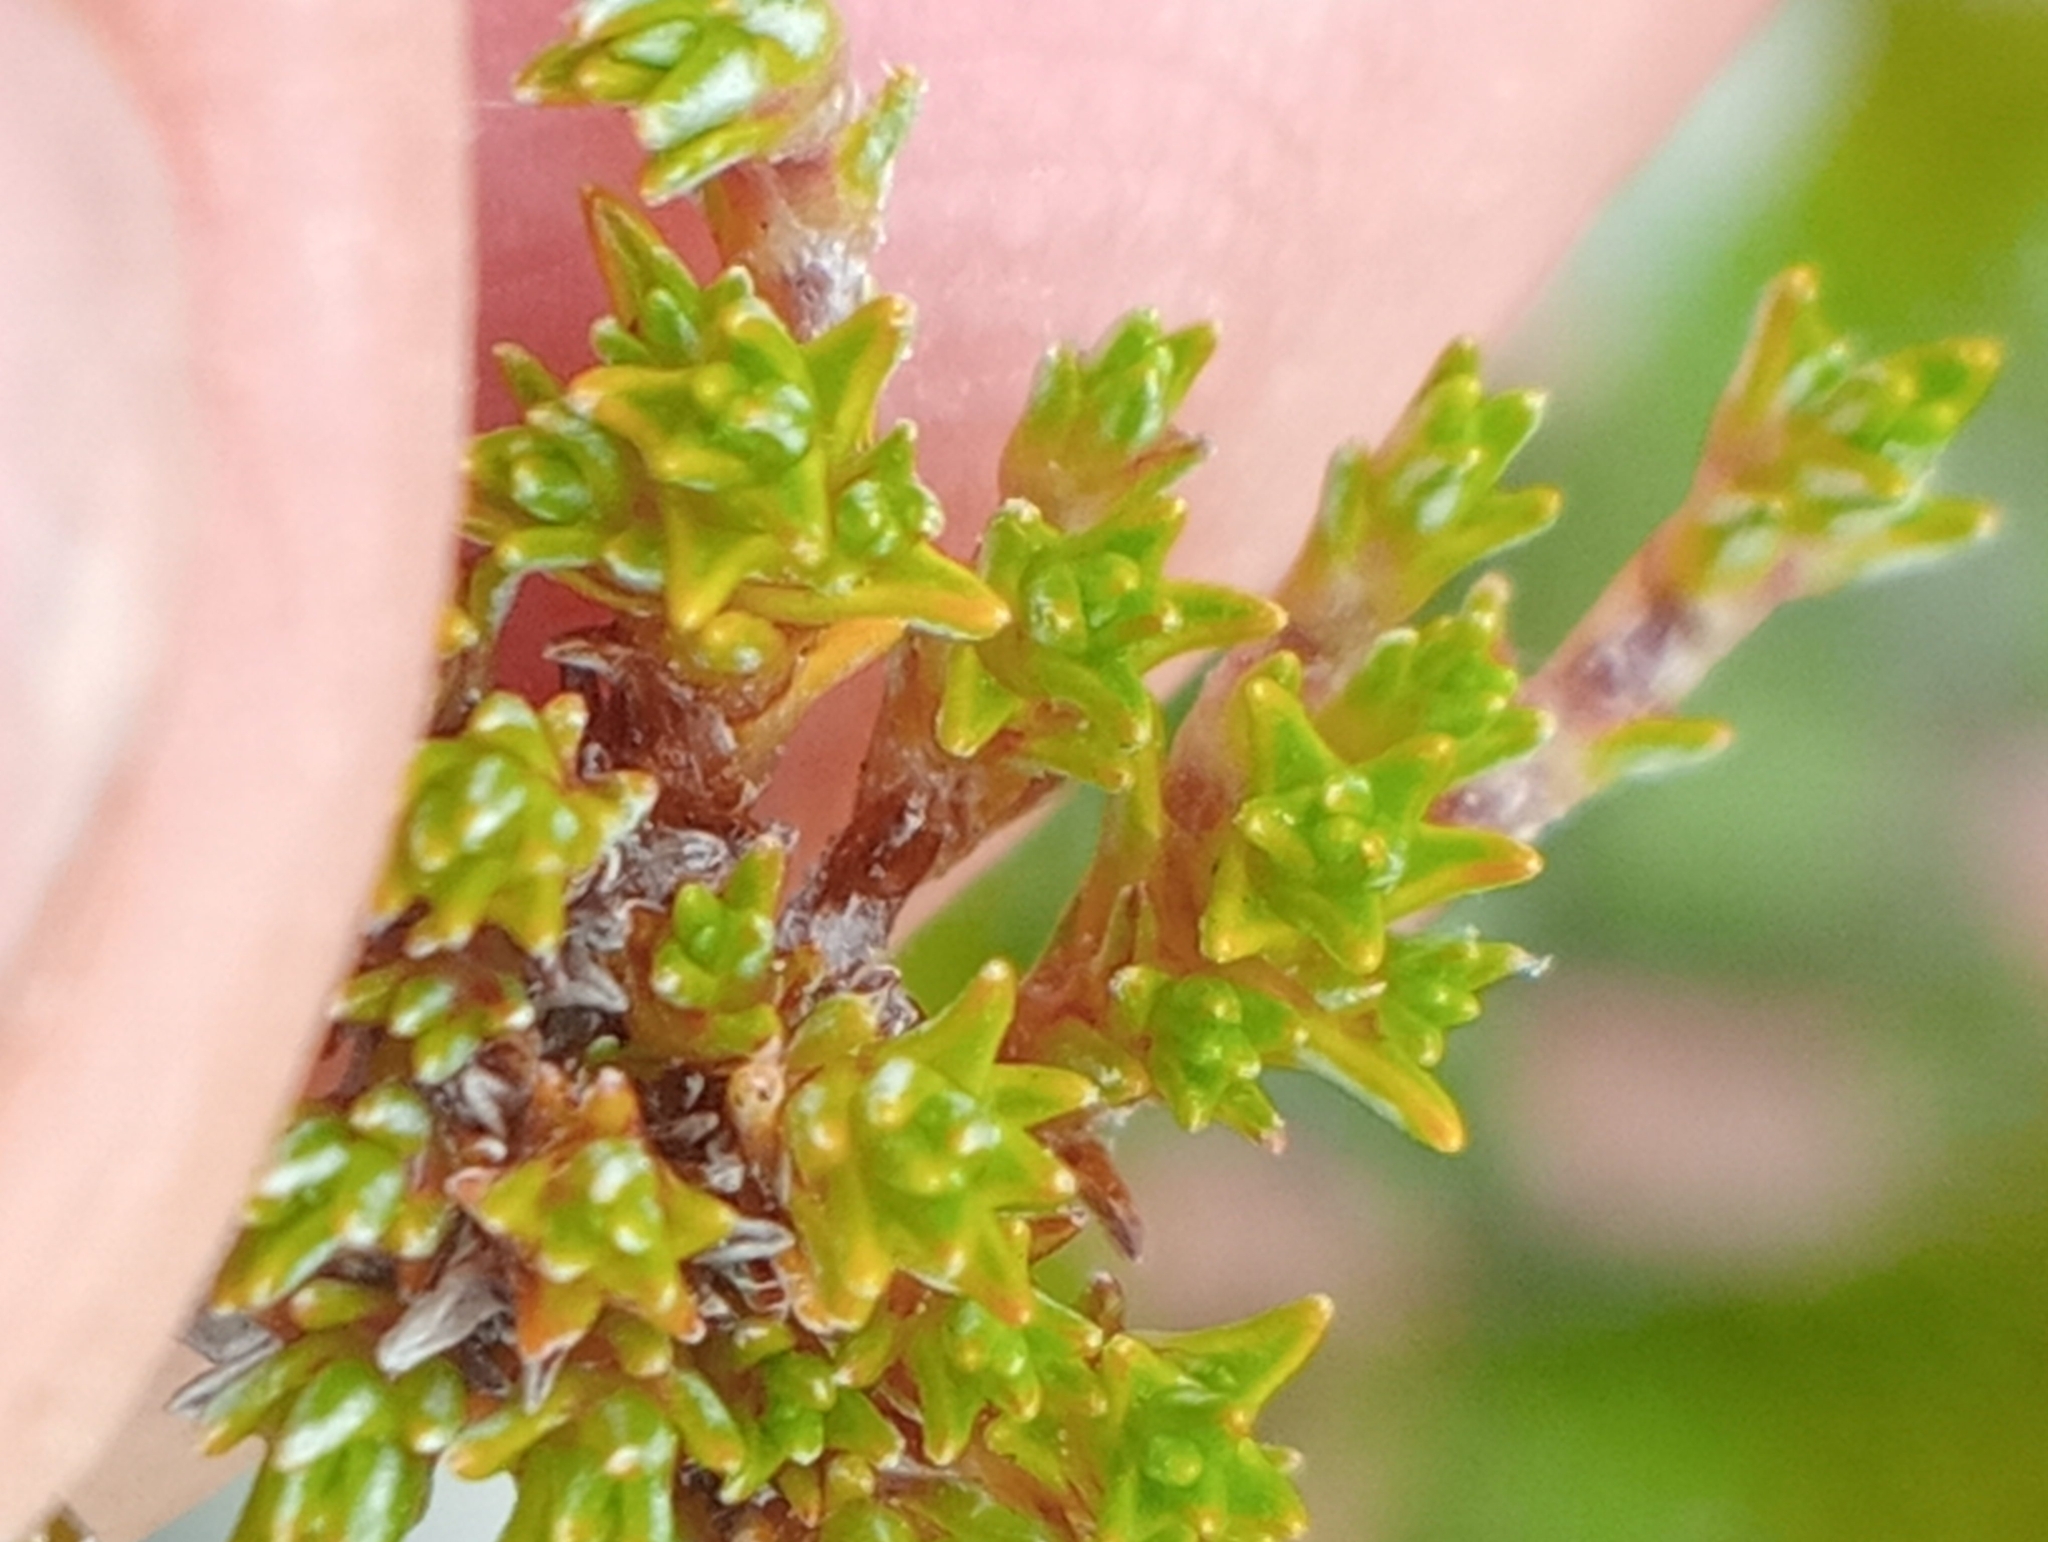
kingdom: Plantae
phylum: Tracheophyta
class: Magnoliopsida
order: Asterales
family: Asteraceae
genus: Raoulia
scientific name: Raoulia haastii
